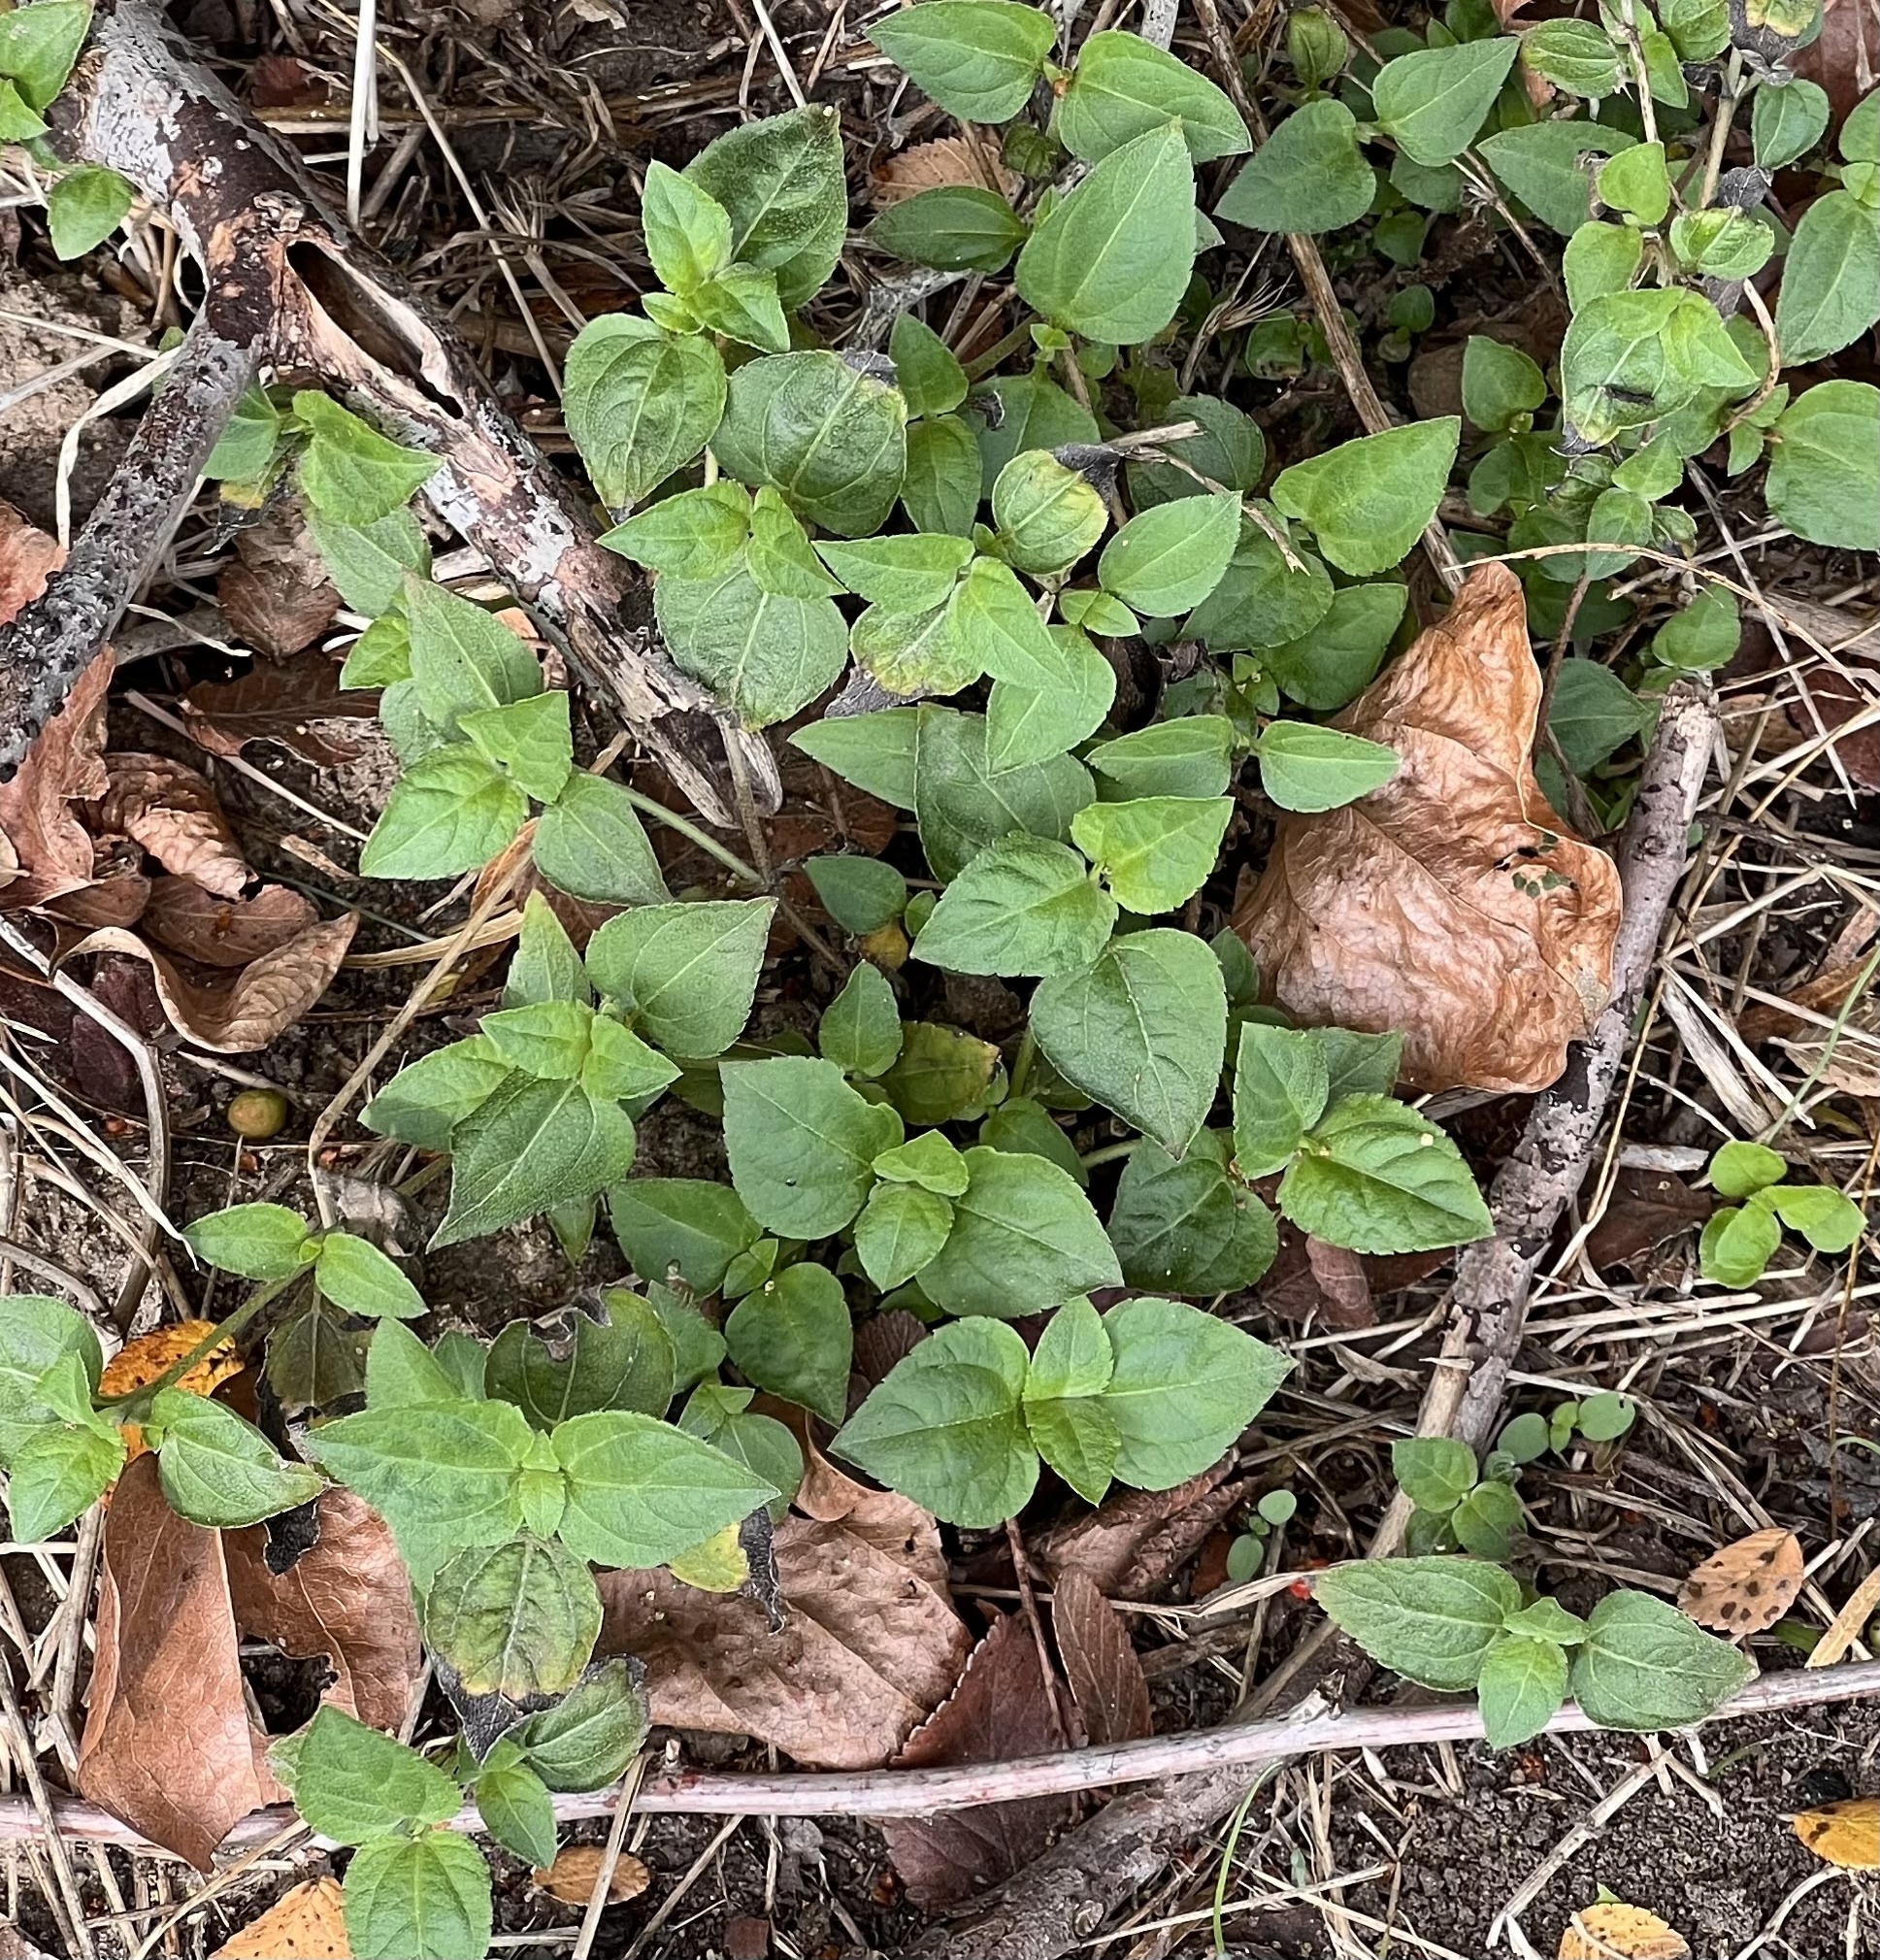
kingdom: Plantae
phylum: Tracheophyta
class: Magnoliopsida
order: Asterales
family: Asteraceae
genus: Calyptocarpus
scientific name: Calyptocarpus vialis
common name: Straggler daisy
